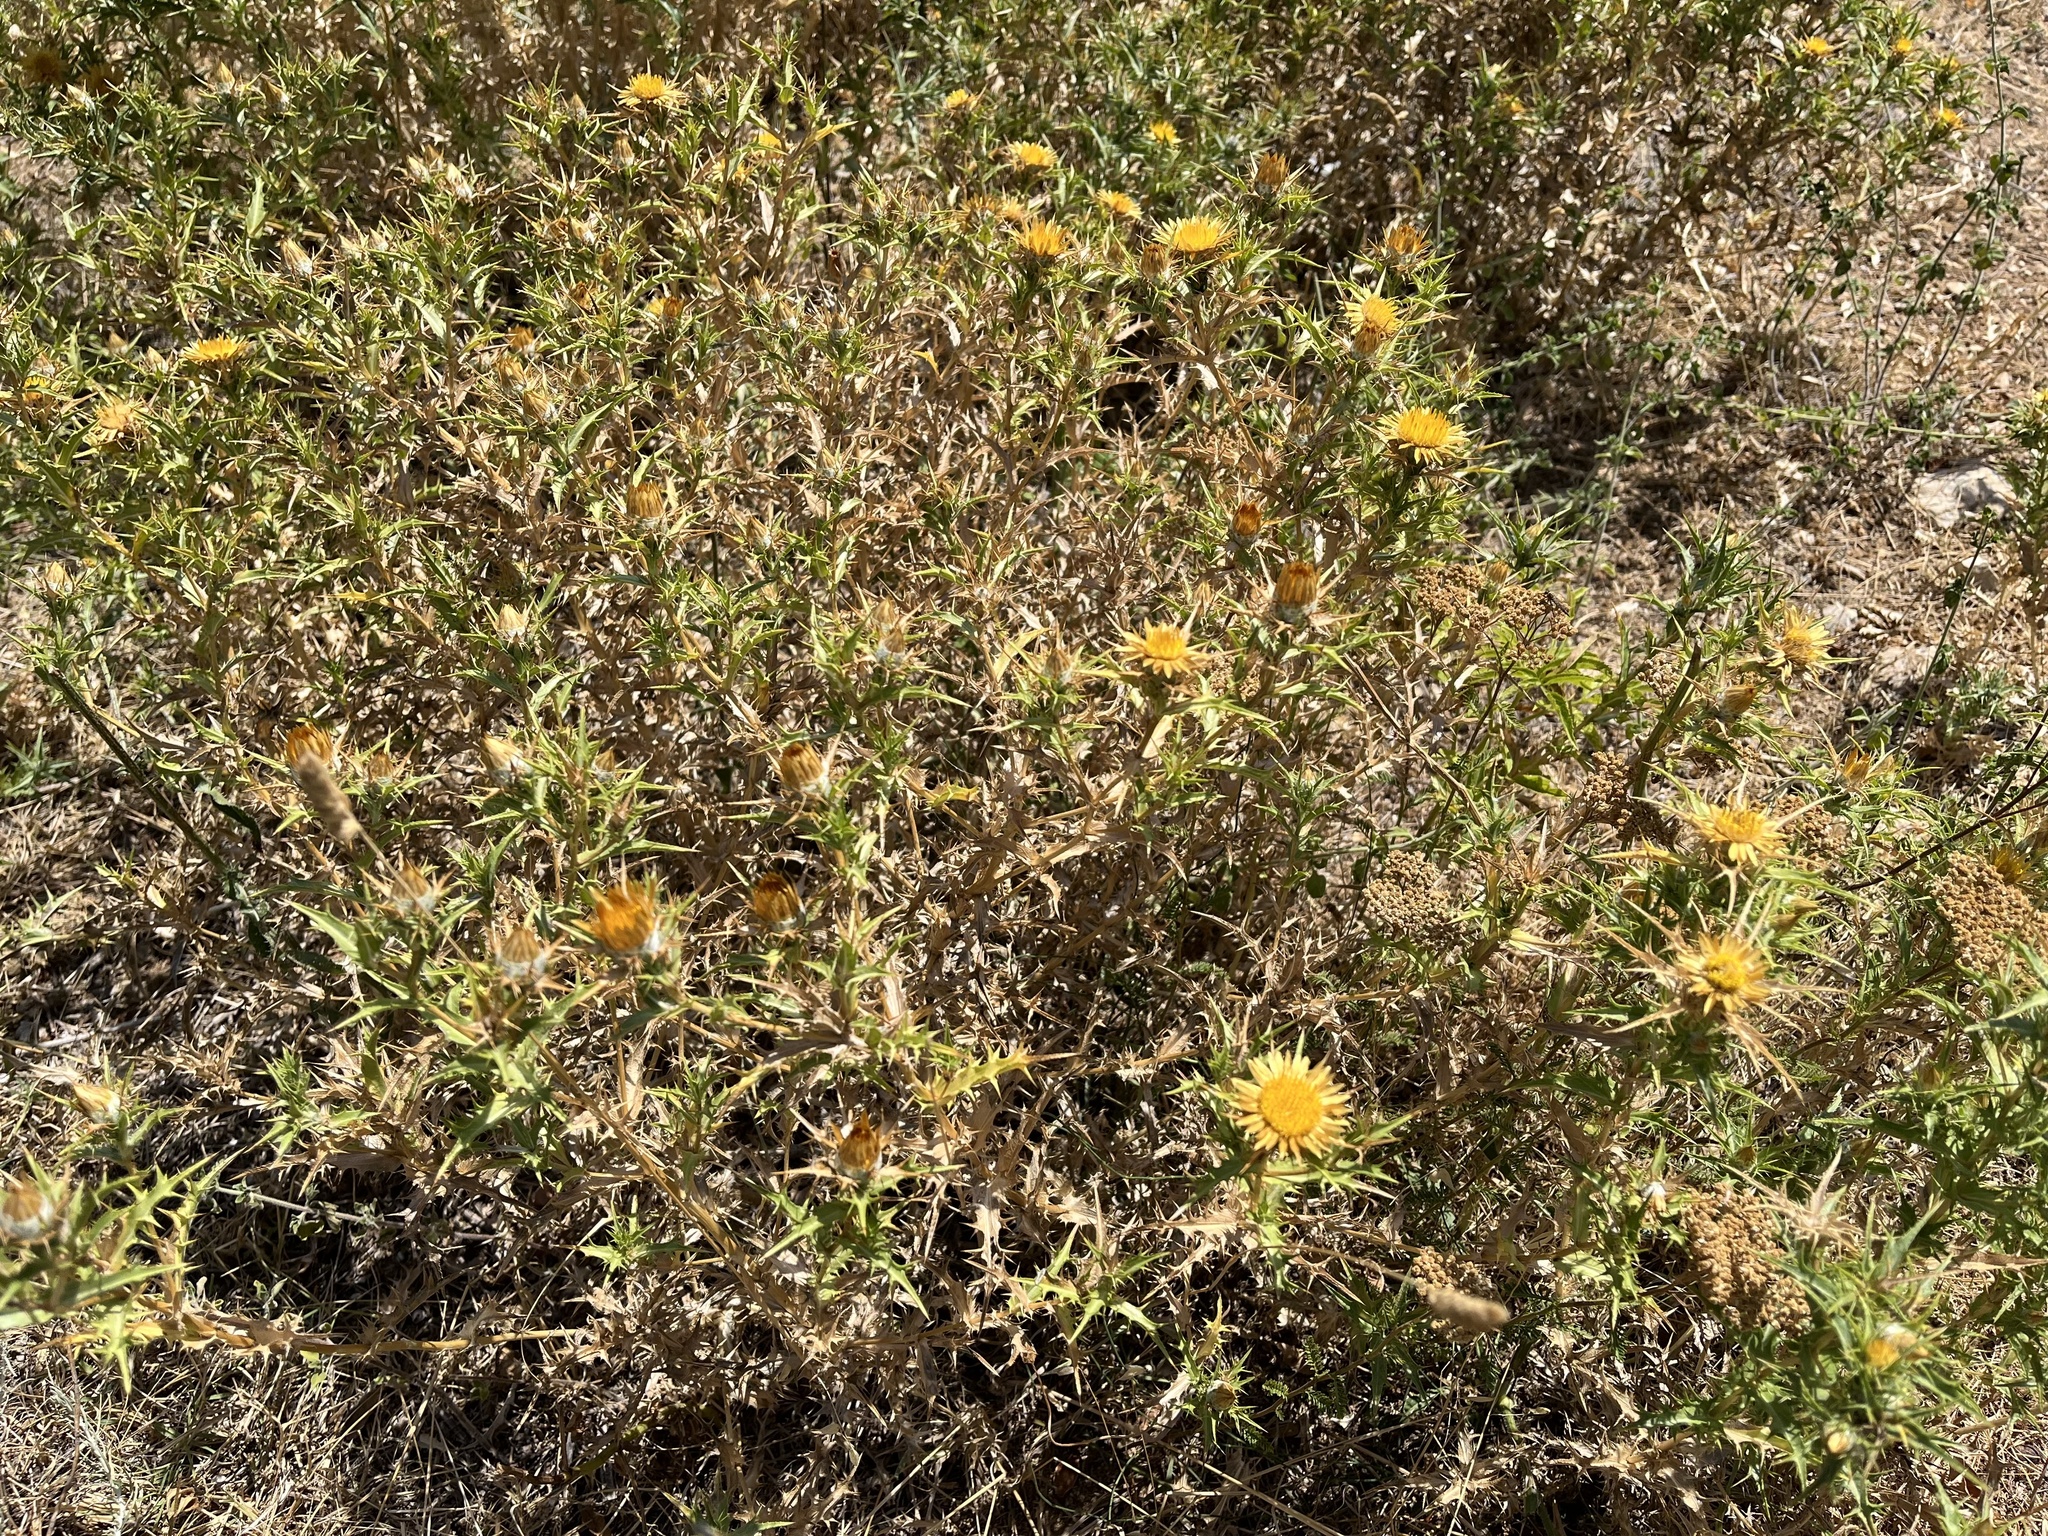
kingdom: Plantae
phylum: Tracheophyta
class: Magnoliopsida
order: Asterales
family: Asteraceae
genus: Carlina
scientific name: Carlina corymbosa
